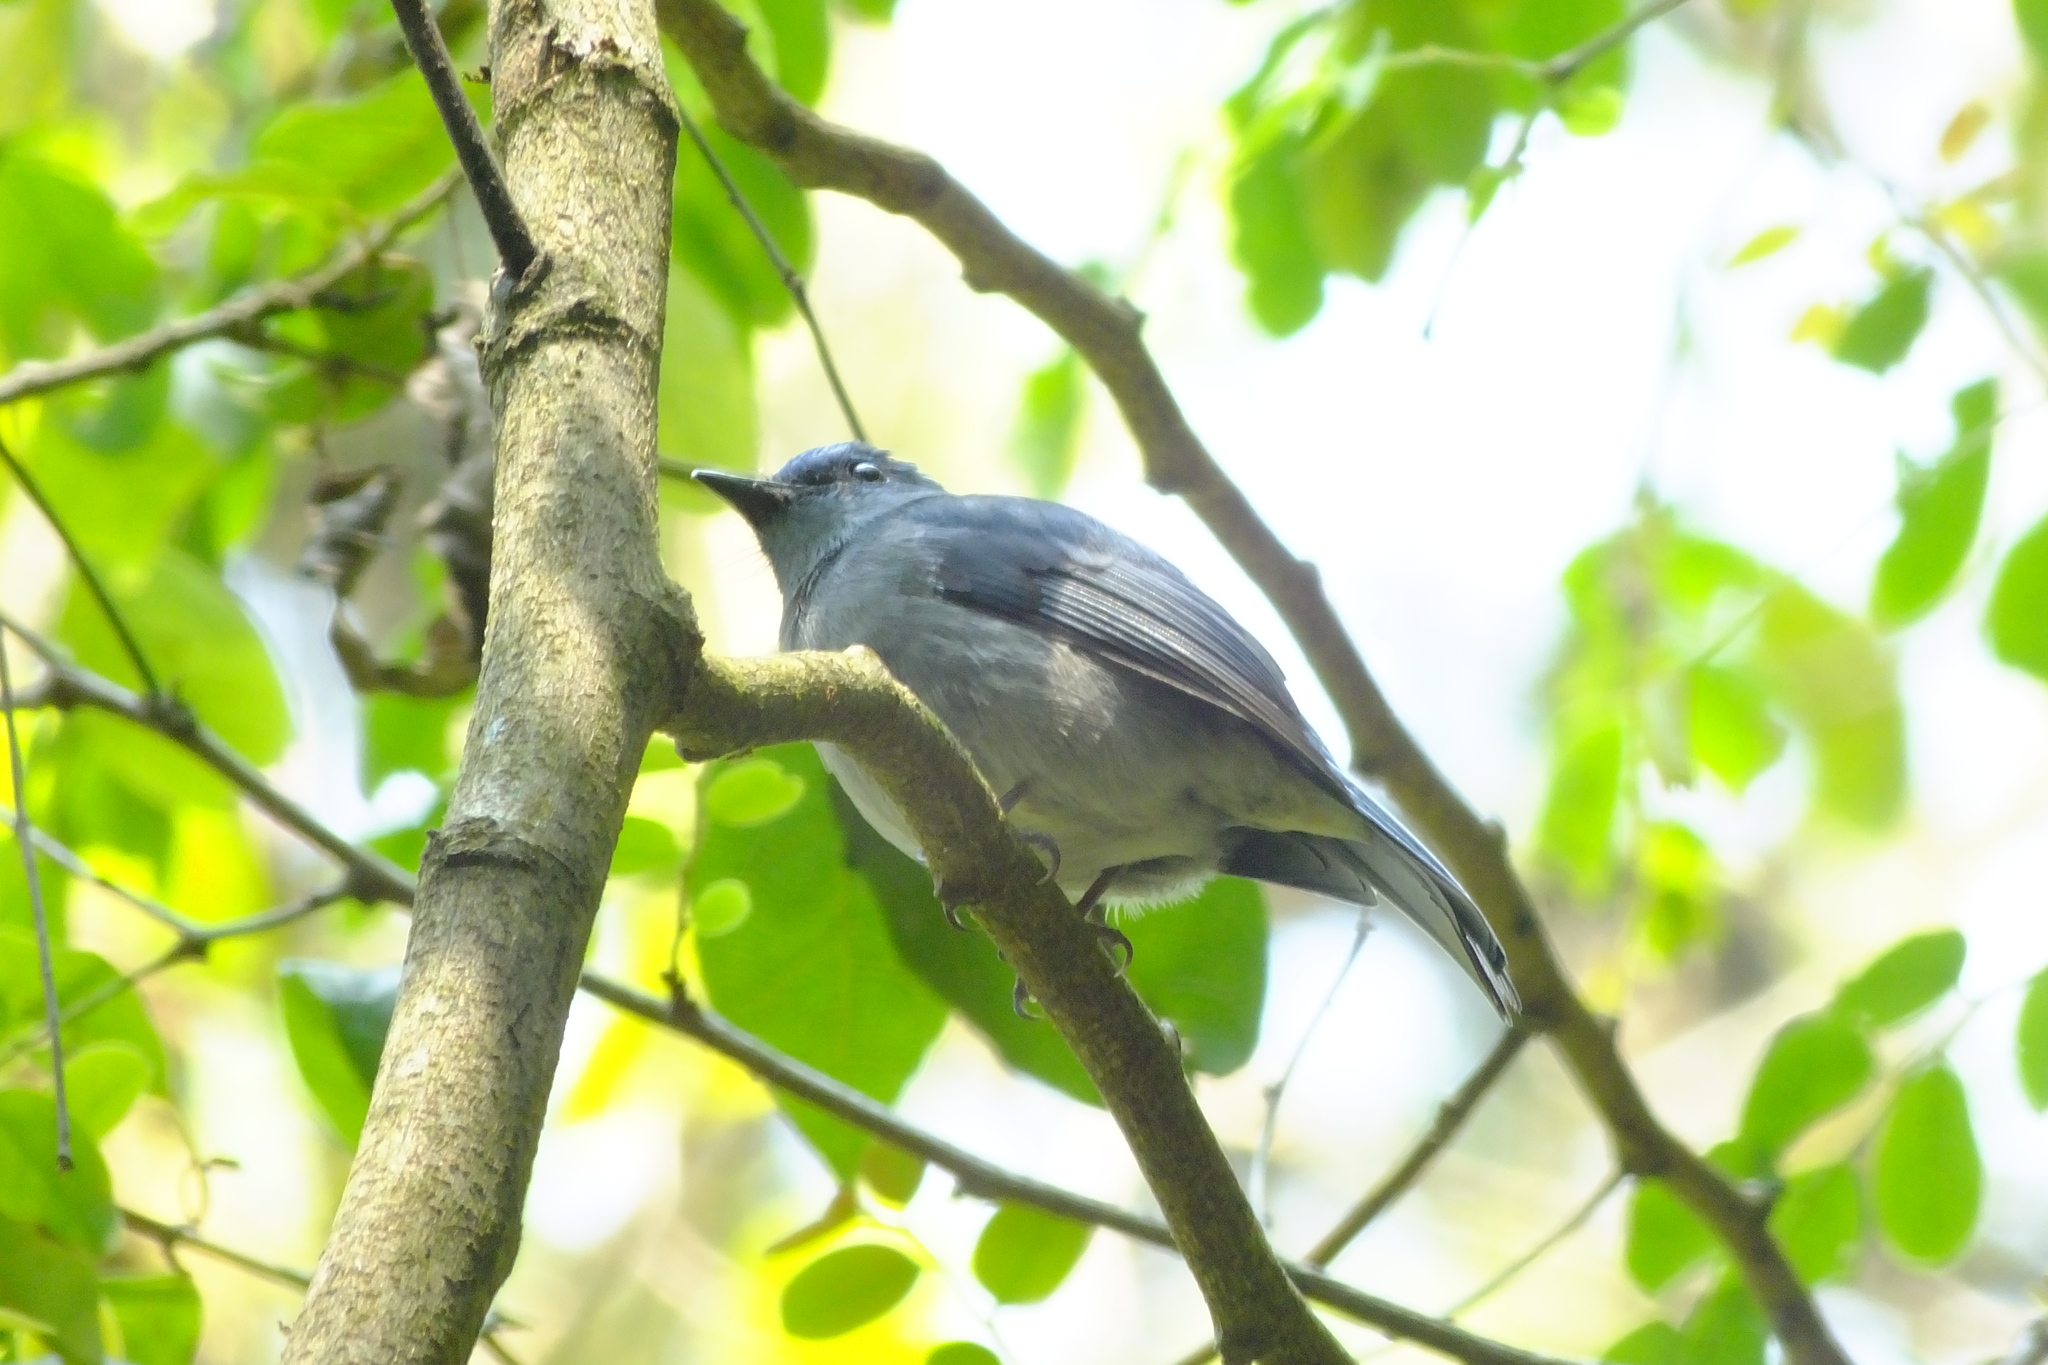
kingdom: Animalia
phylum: Chordata
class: Aves
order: Passeriformes
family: Muscicapidae
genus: Cyornis
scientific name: Cyornis unicolor
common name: Pale blue flycatcher
